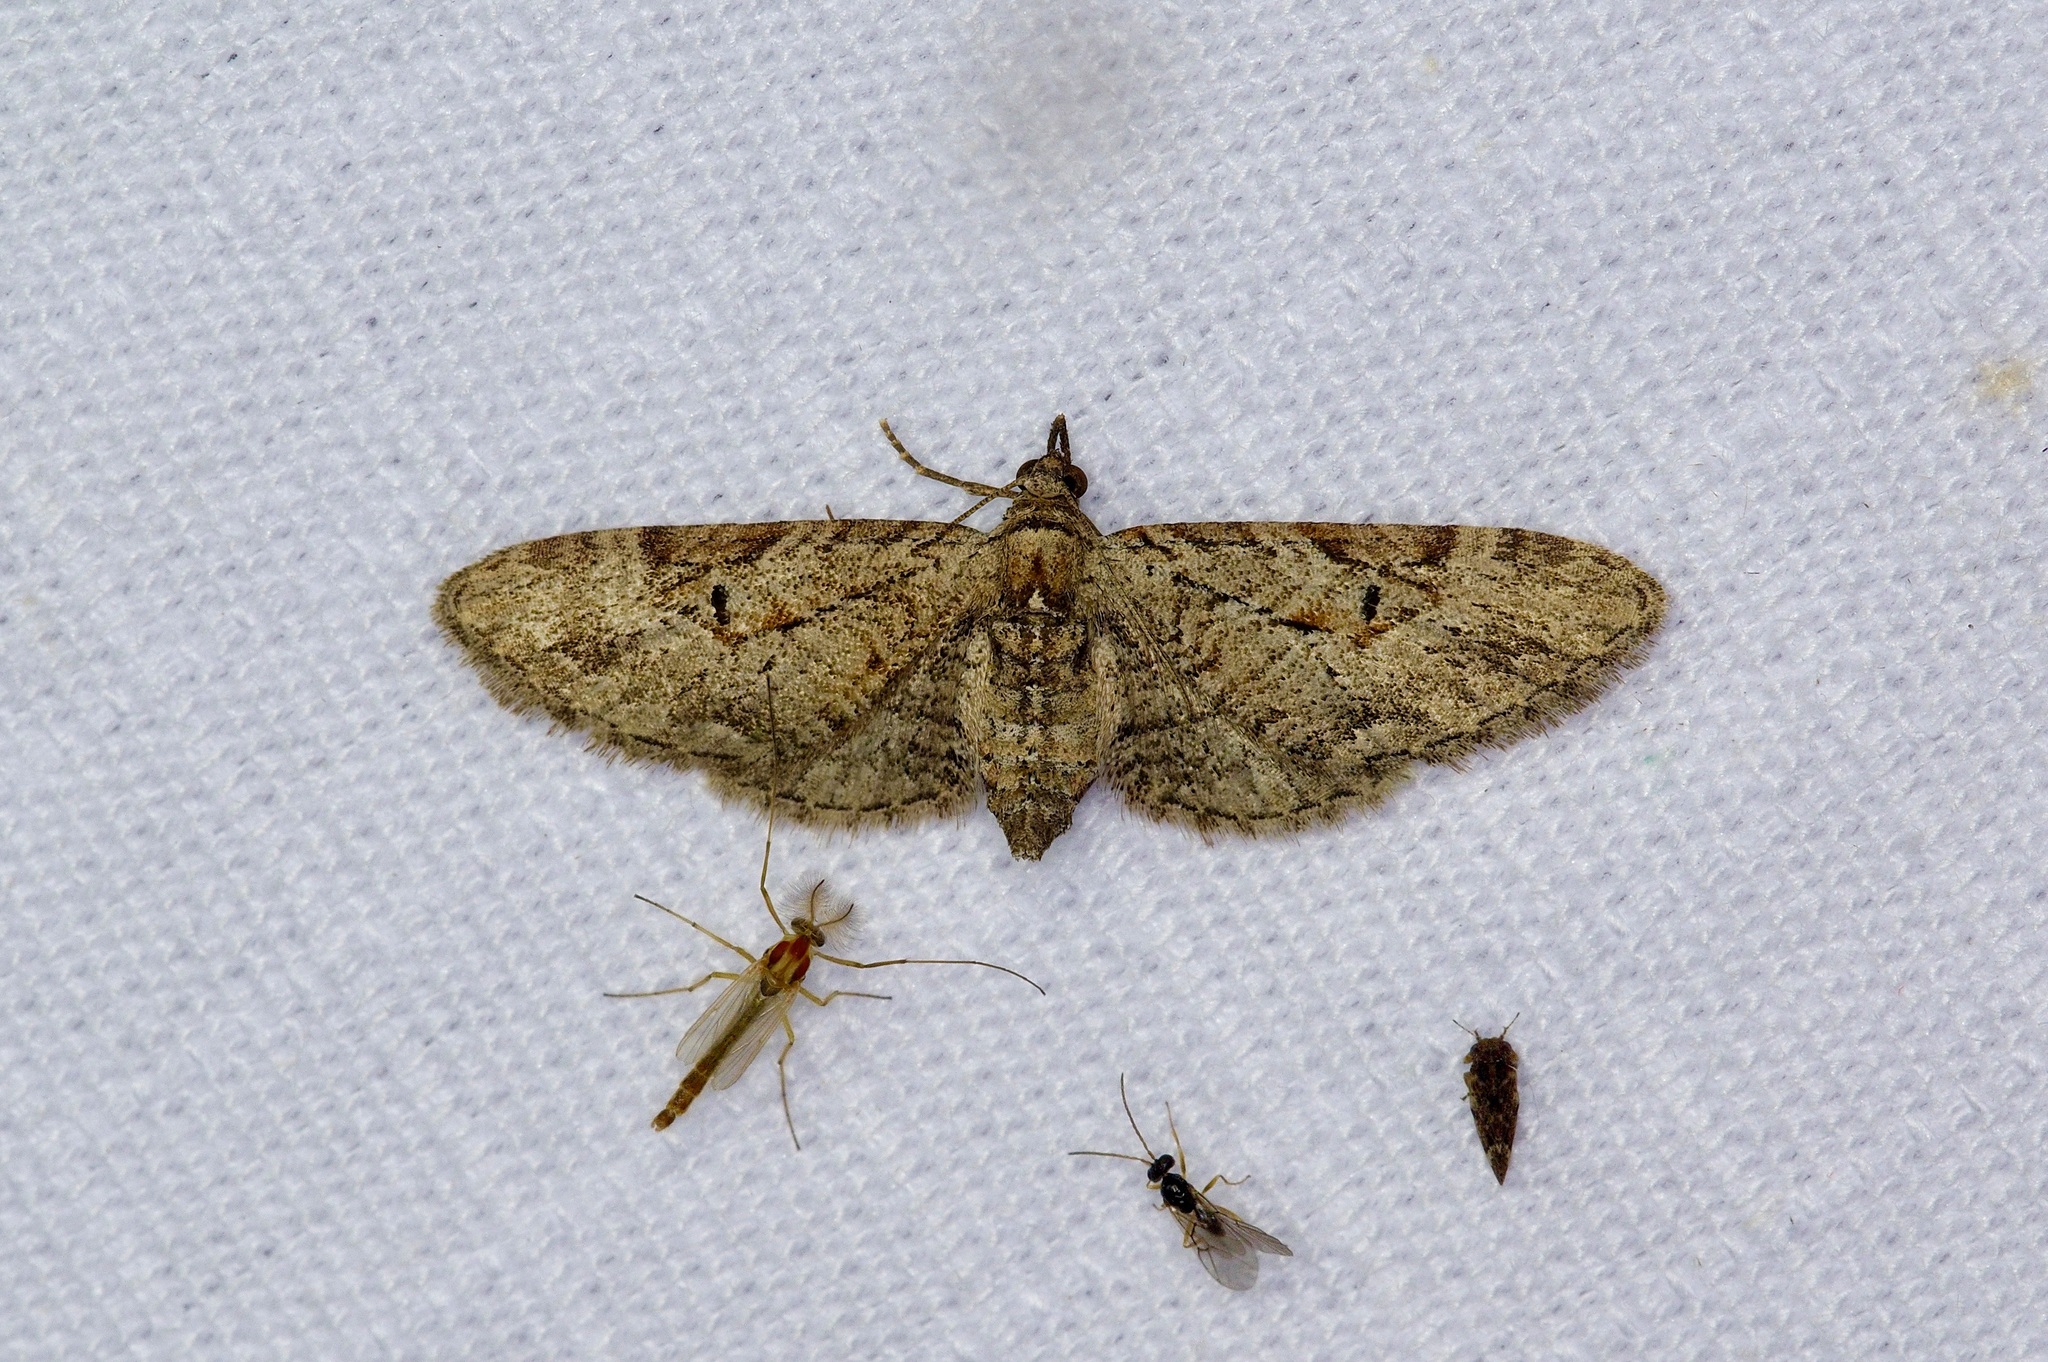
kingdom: Animalia
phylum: Arthropoda
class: Insecta
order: Lepidoptera
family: Geometridae
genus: Eupithecia
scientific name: Eupithecia bolterii
